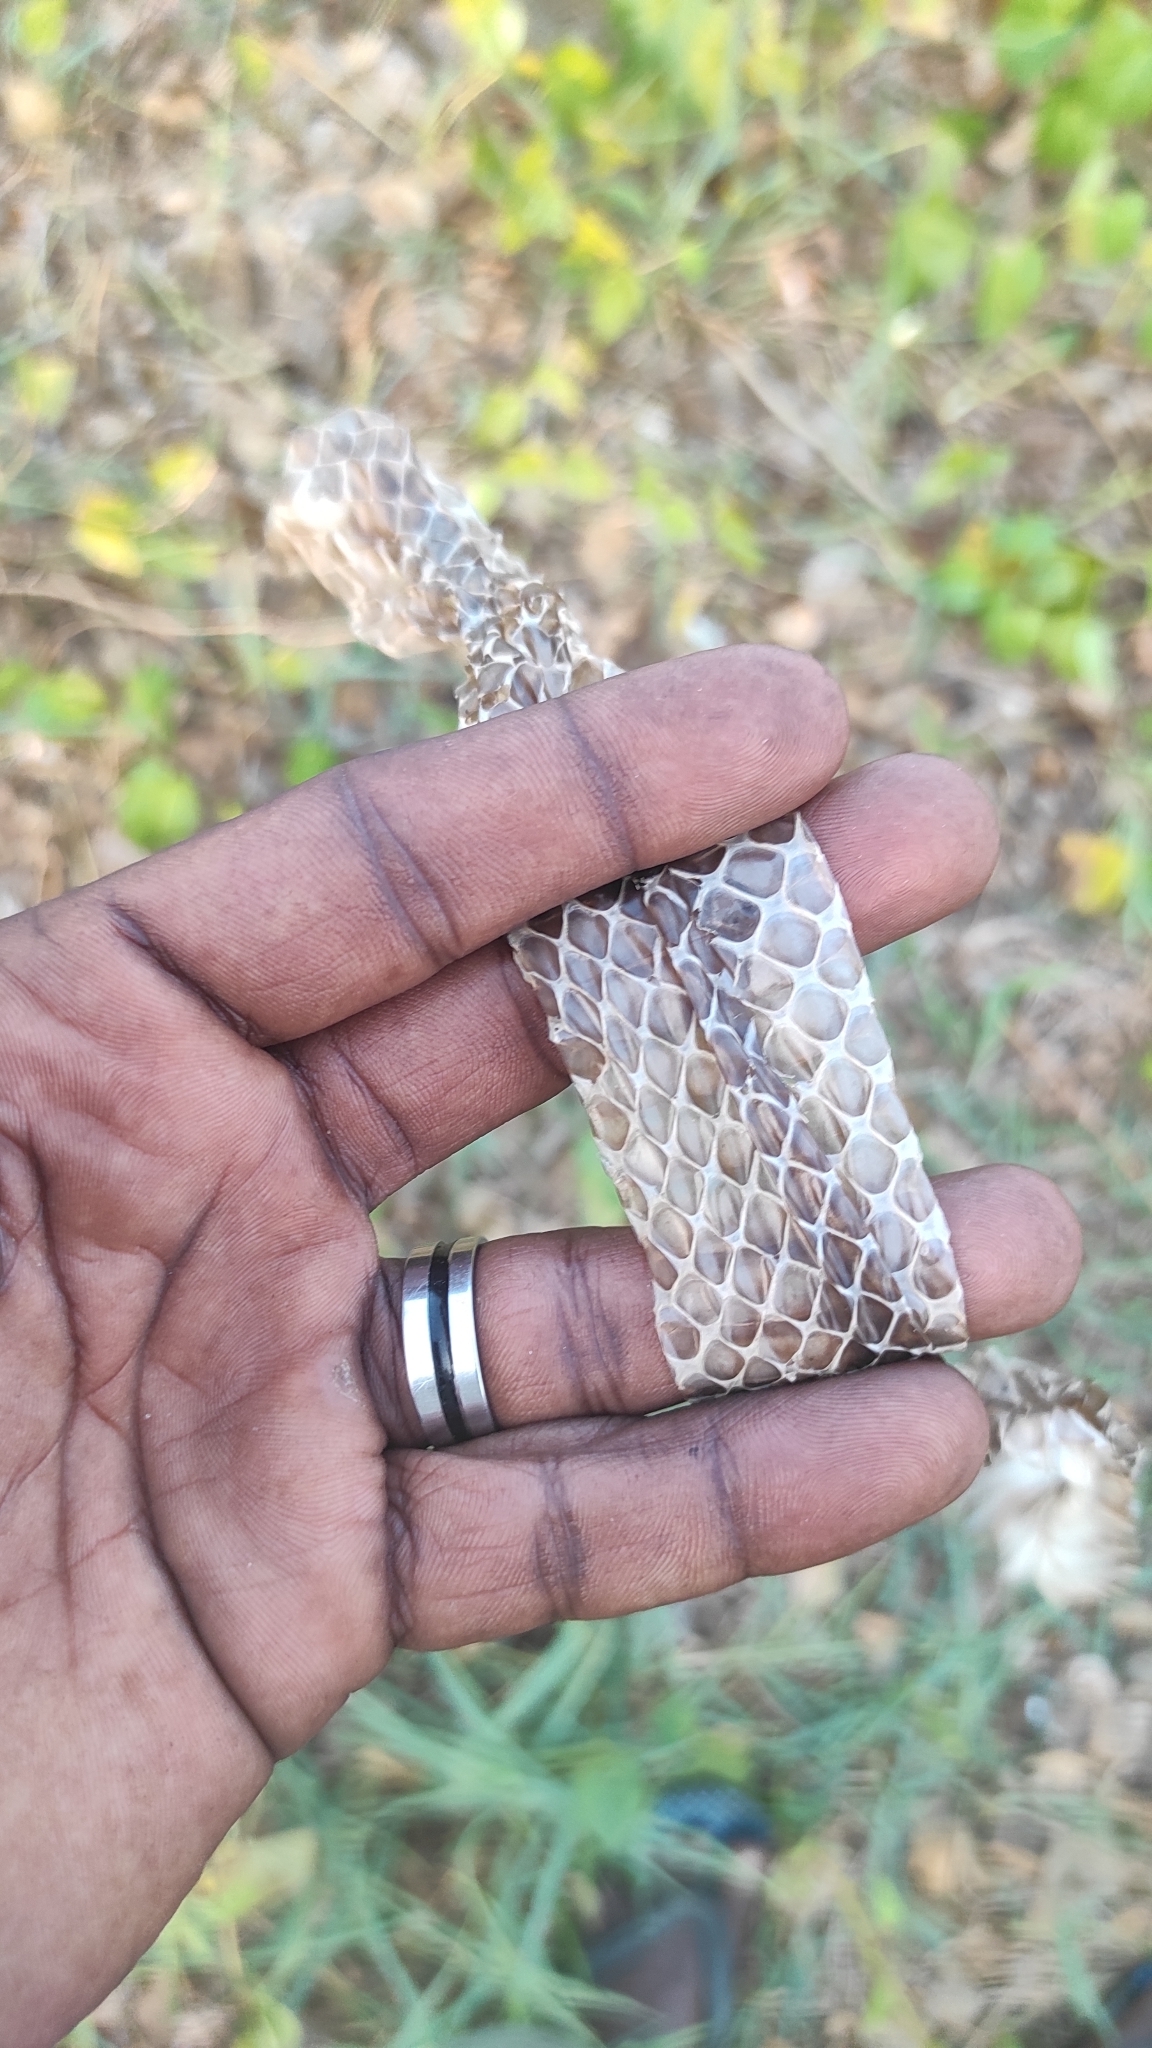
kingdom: Animalia
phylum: Chordata
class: Squamata
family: Colubridae
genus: Ptyas
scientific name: Ptyas mucosa
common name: Oriental ratsnake
